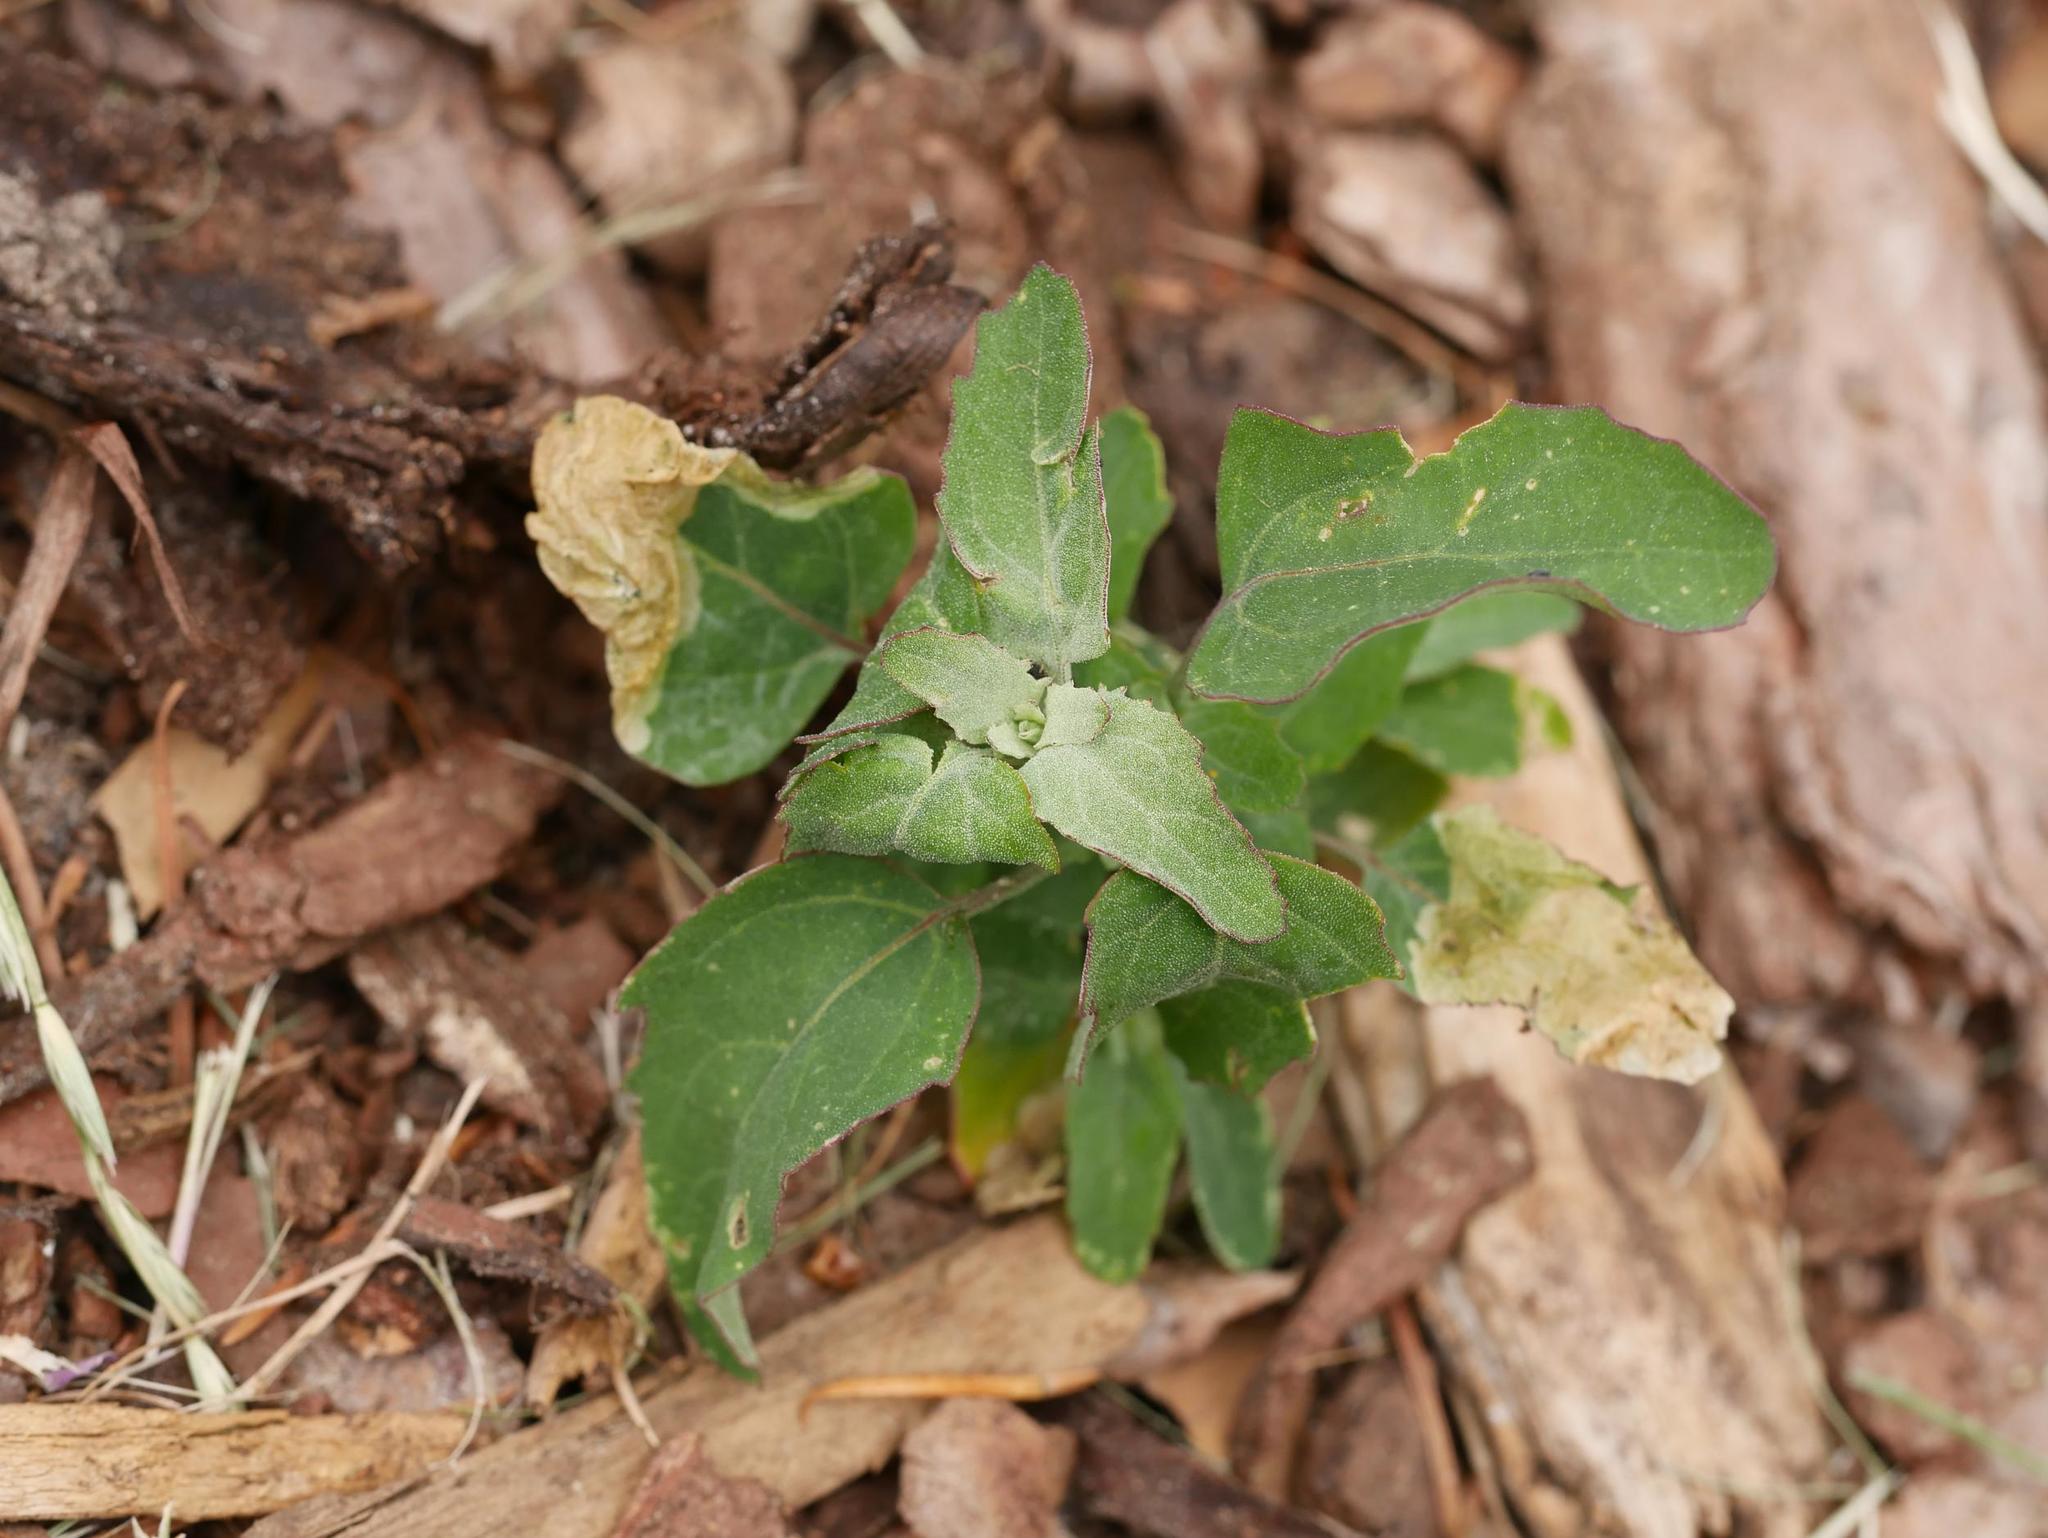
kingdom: Plantae
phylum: Tracheophyta
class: Magnoliopsida
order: Caryophyllales
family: Amaranthaceae
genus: Chenopodium
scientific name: Chenopodium album
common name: Fat-hen
